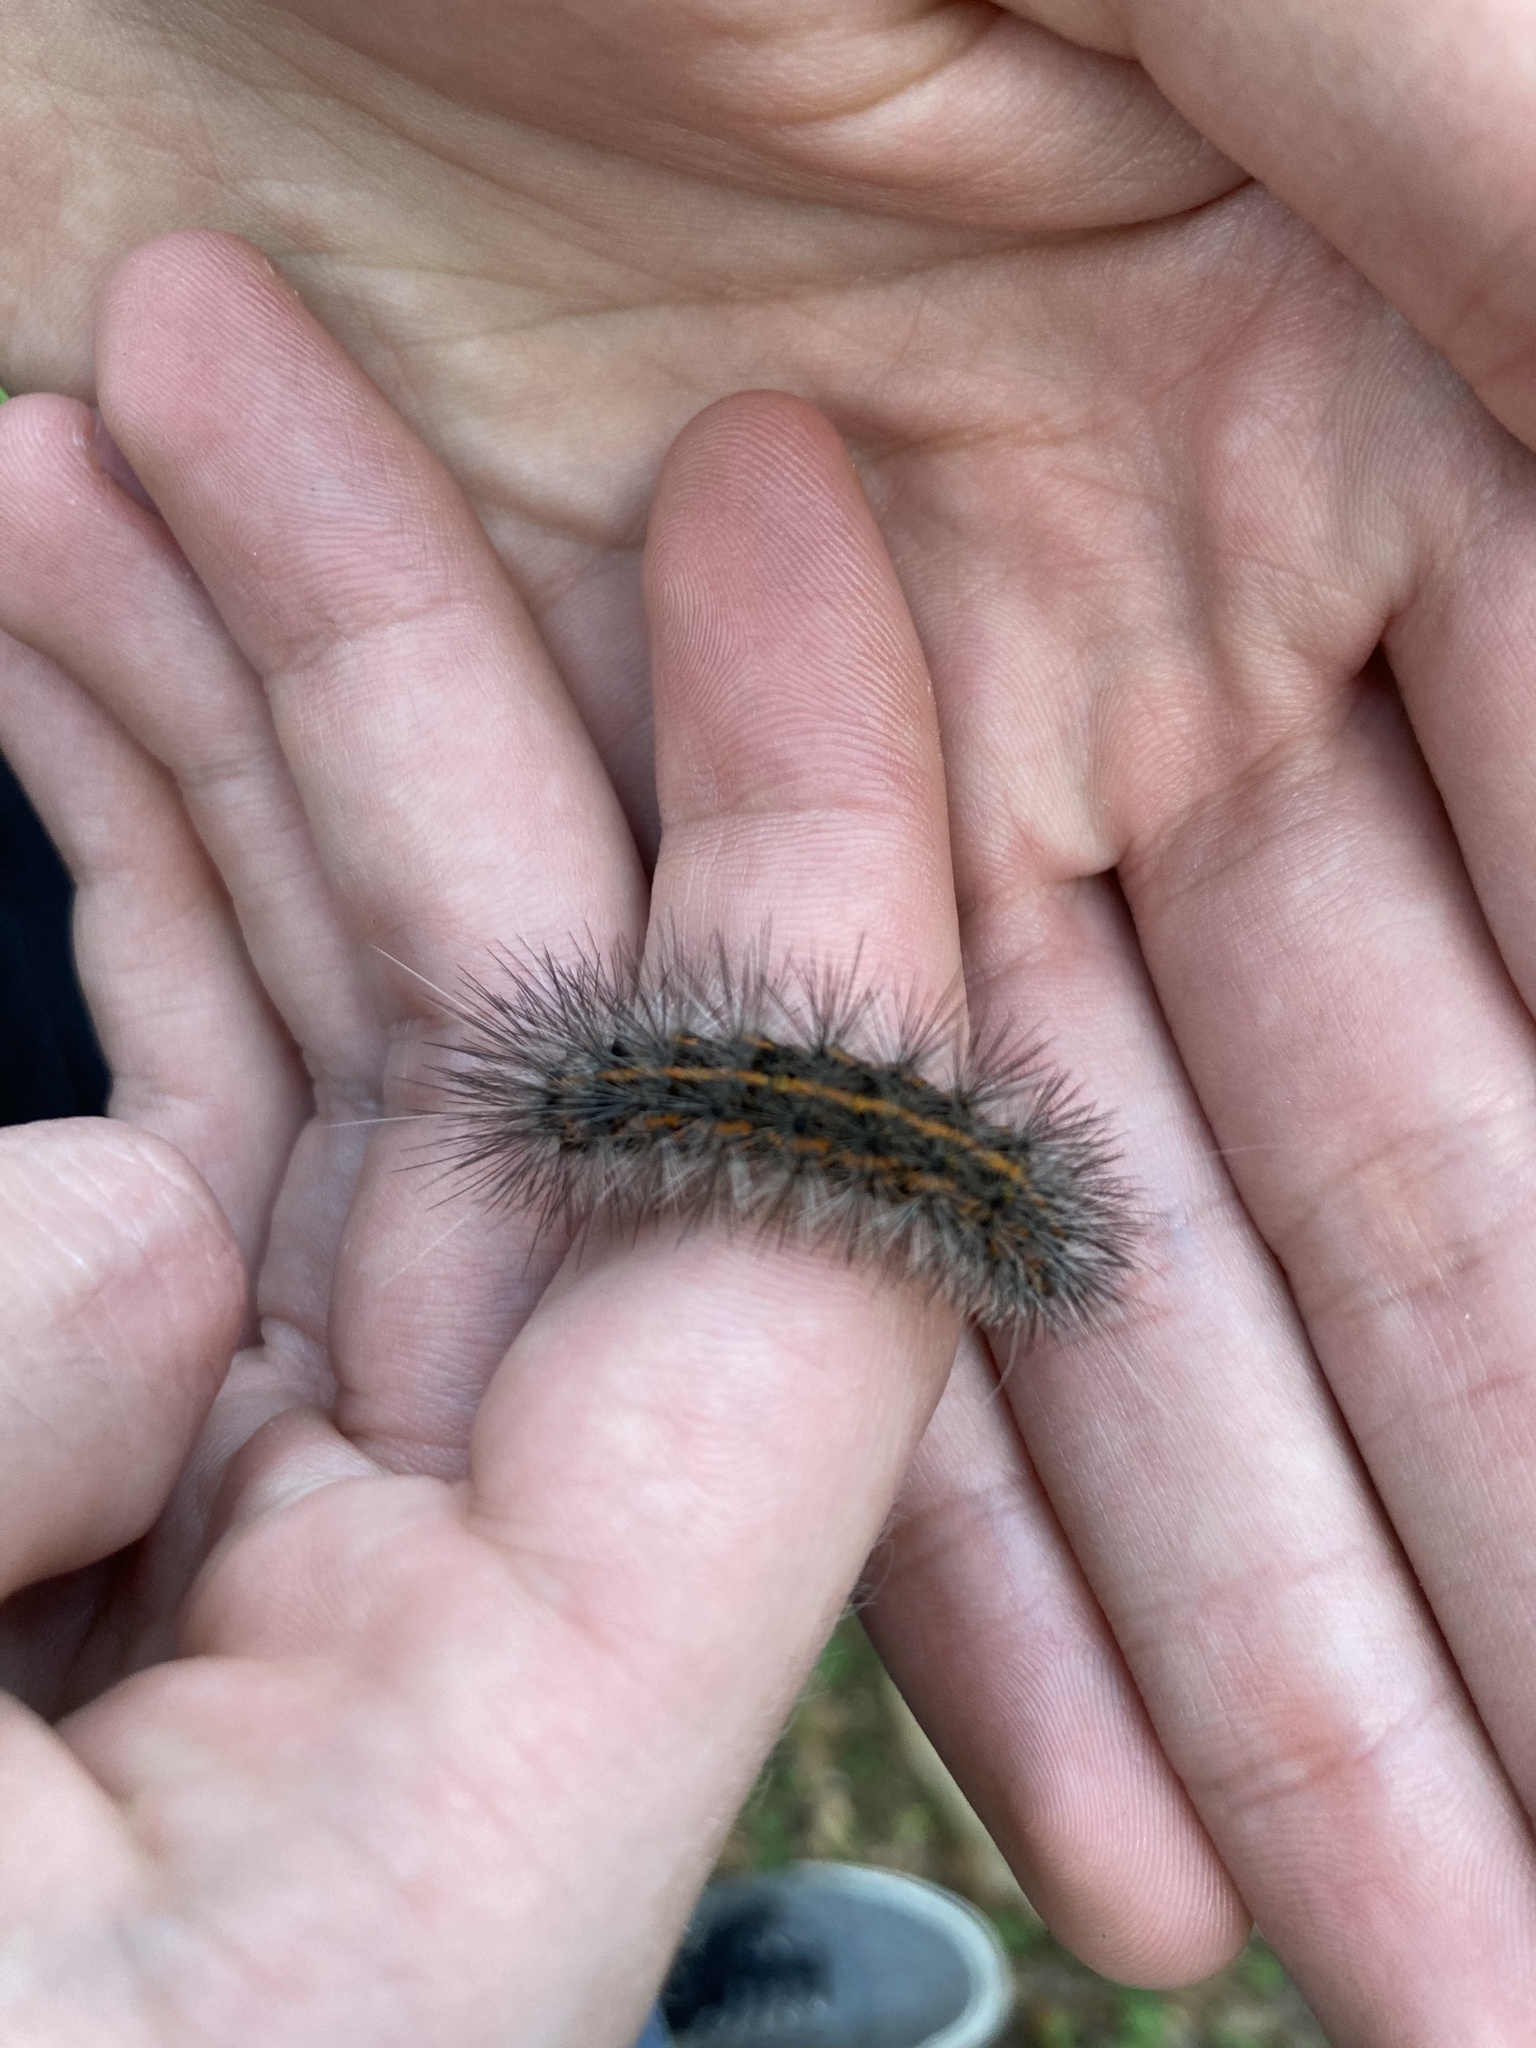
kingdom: Animalia
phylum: Arthropoda
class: Insecta
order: Lepidoptera
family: Erebidae
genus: Spilosoma
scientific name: Spilosoma dubia
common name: Dubious tiger moth
